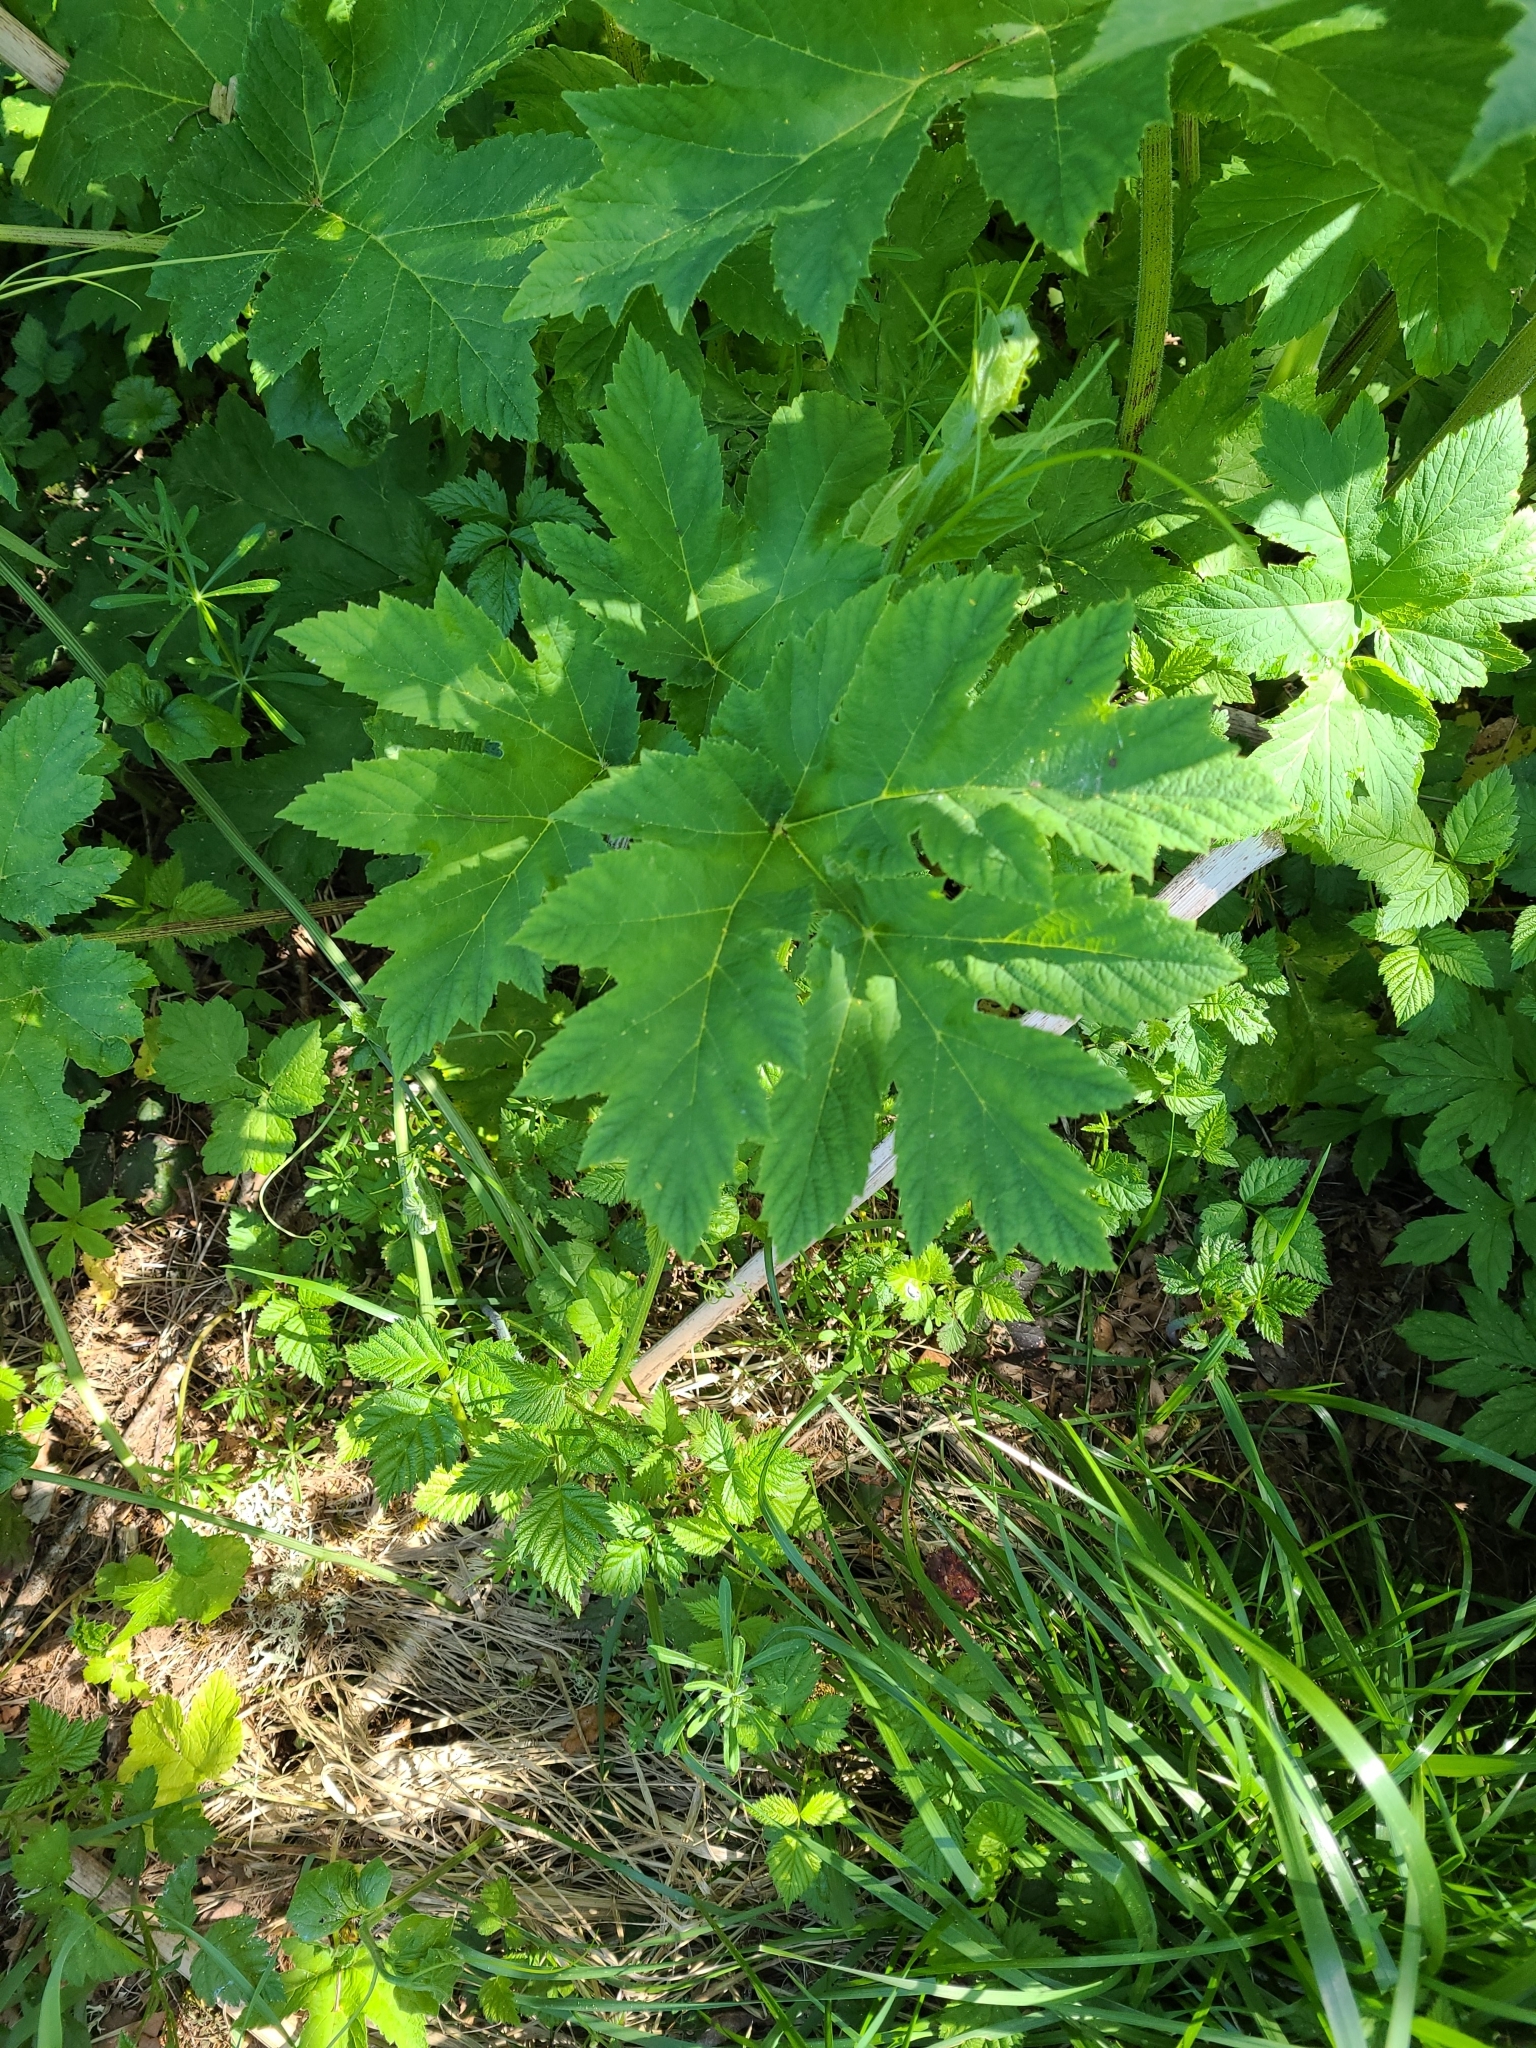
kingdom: Plantae
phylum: Tracheophyta
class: Magnoliopsida
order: Apiales
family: Apiaceae
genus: Heracleum
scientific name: Heracleum maximum
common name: American cow parsnip
